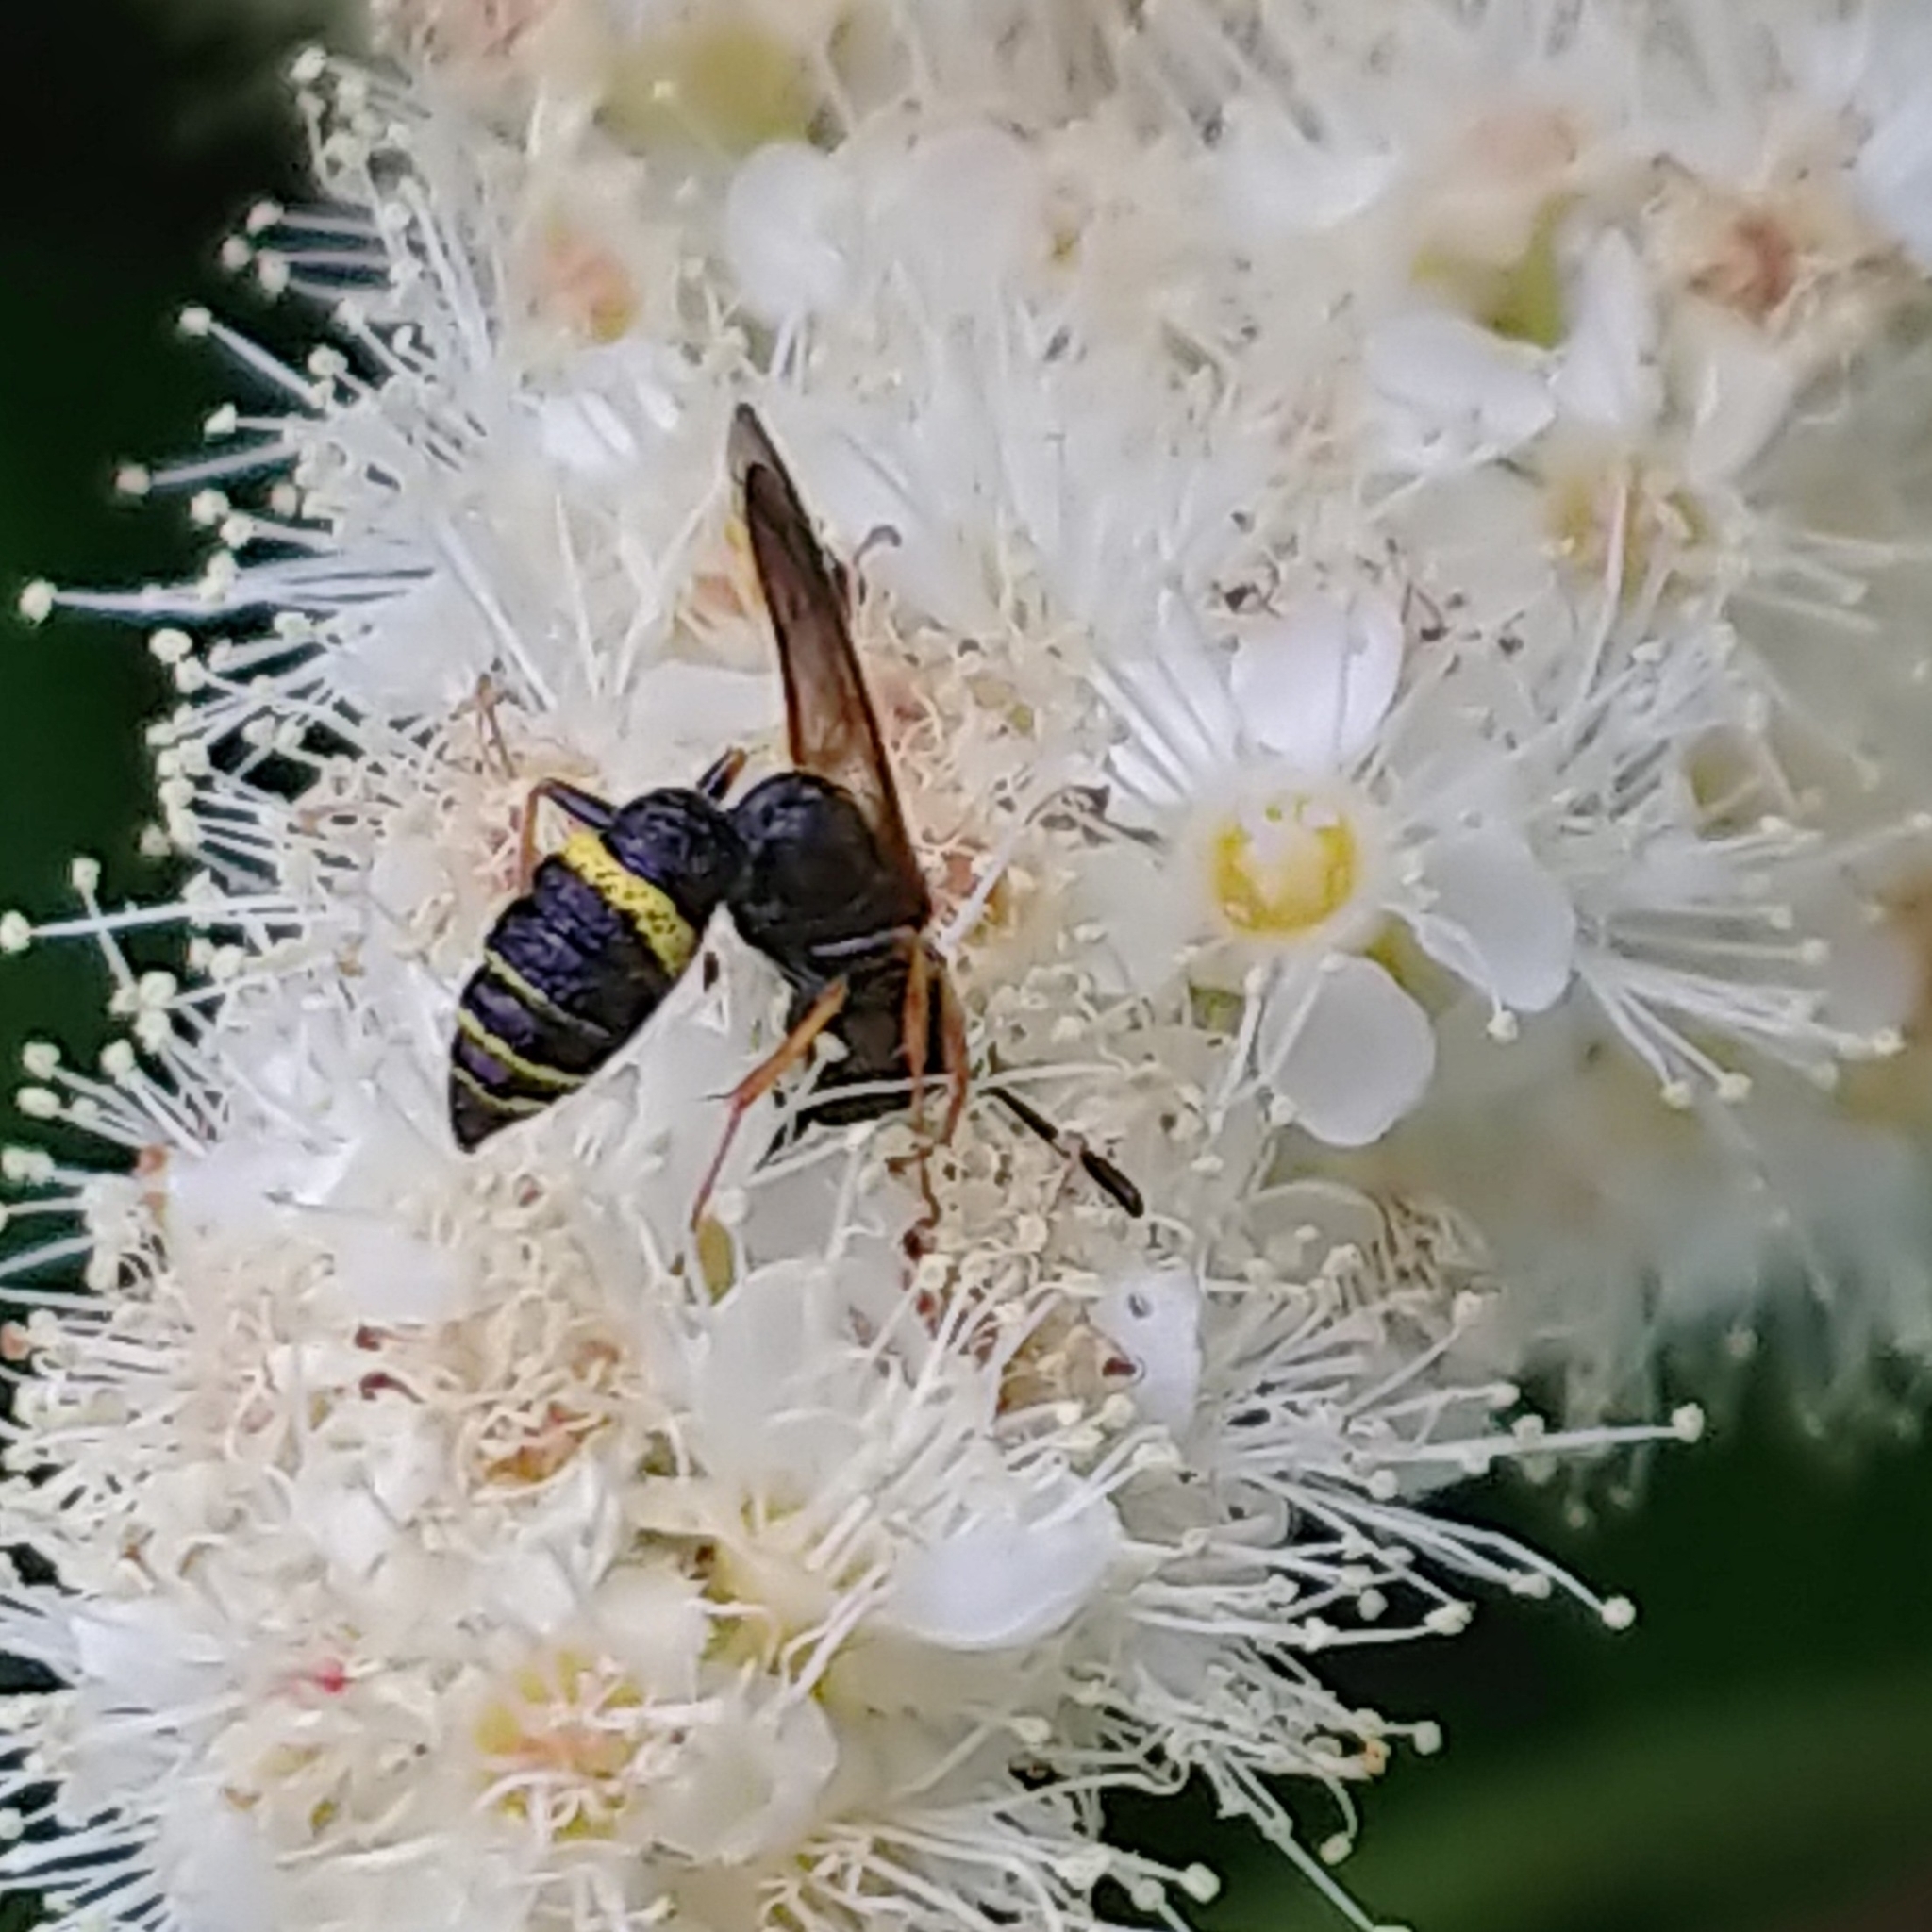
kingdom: Animalia
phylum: Arthropoda
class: Insecta
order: Hymenoptera
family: Crabronidae
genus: Philanthus
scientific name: Philanthus gibbosus
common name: Humped beewolf
